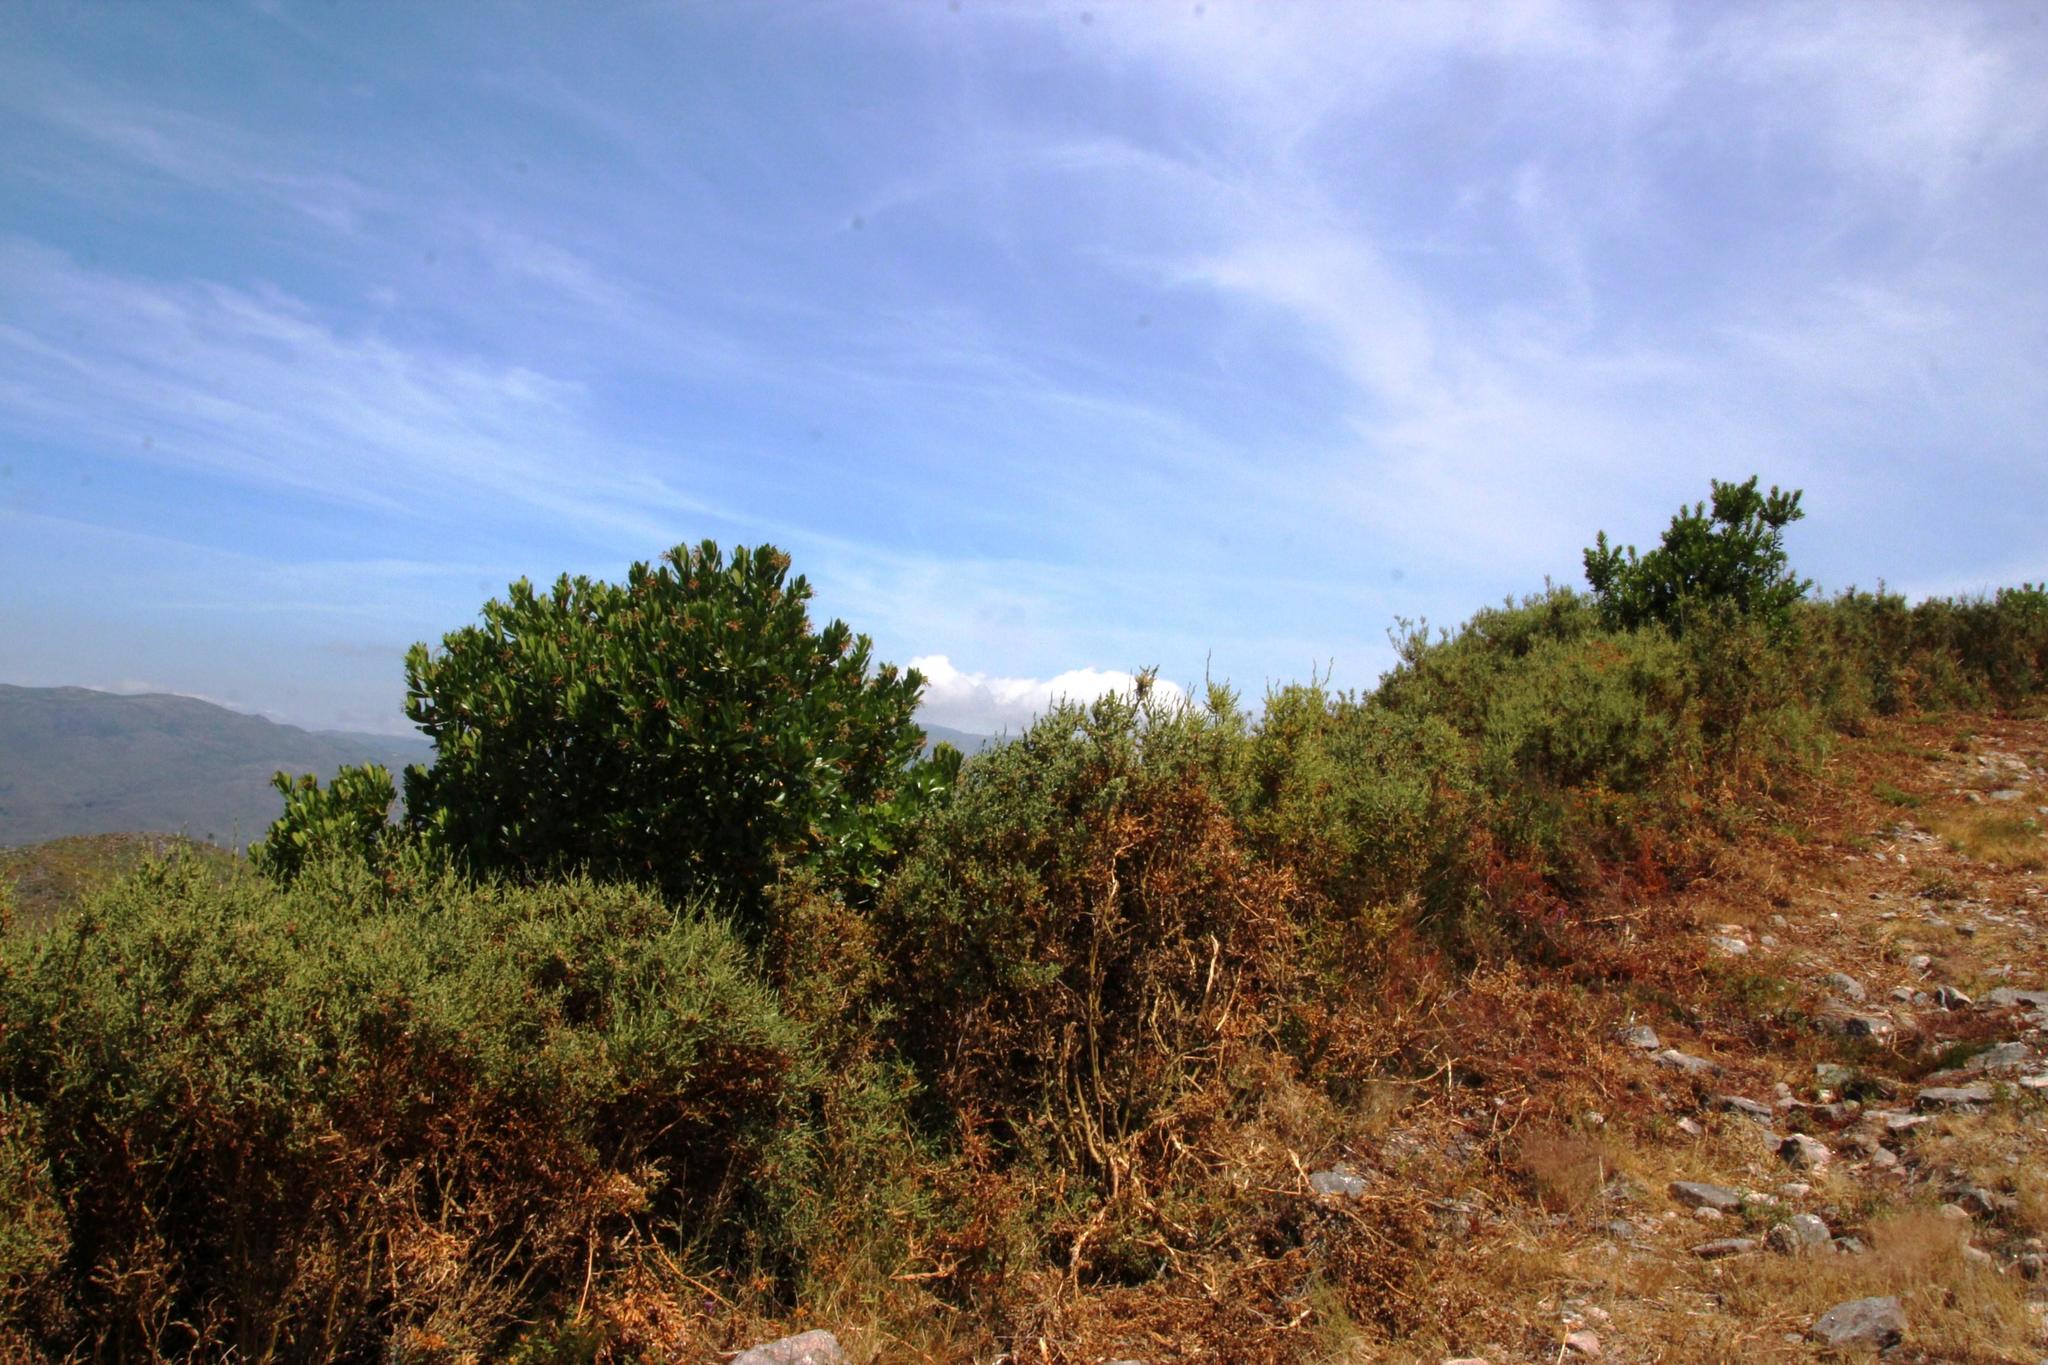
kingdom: Plantae
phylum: Tracheophyta
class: Magnoliopsida
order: Ericales
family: Ericaceae
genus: Arbutus
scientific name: Arbutus unedo
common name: Strawberry-tree
